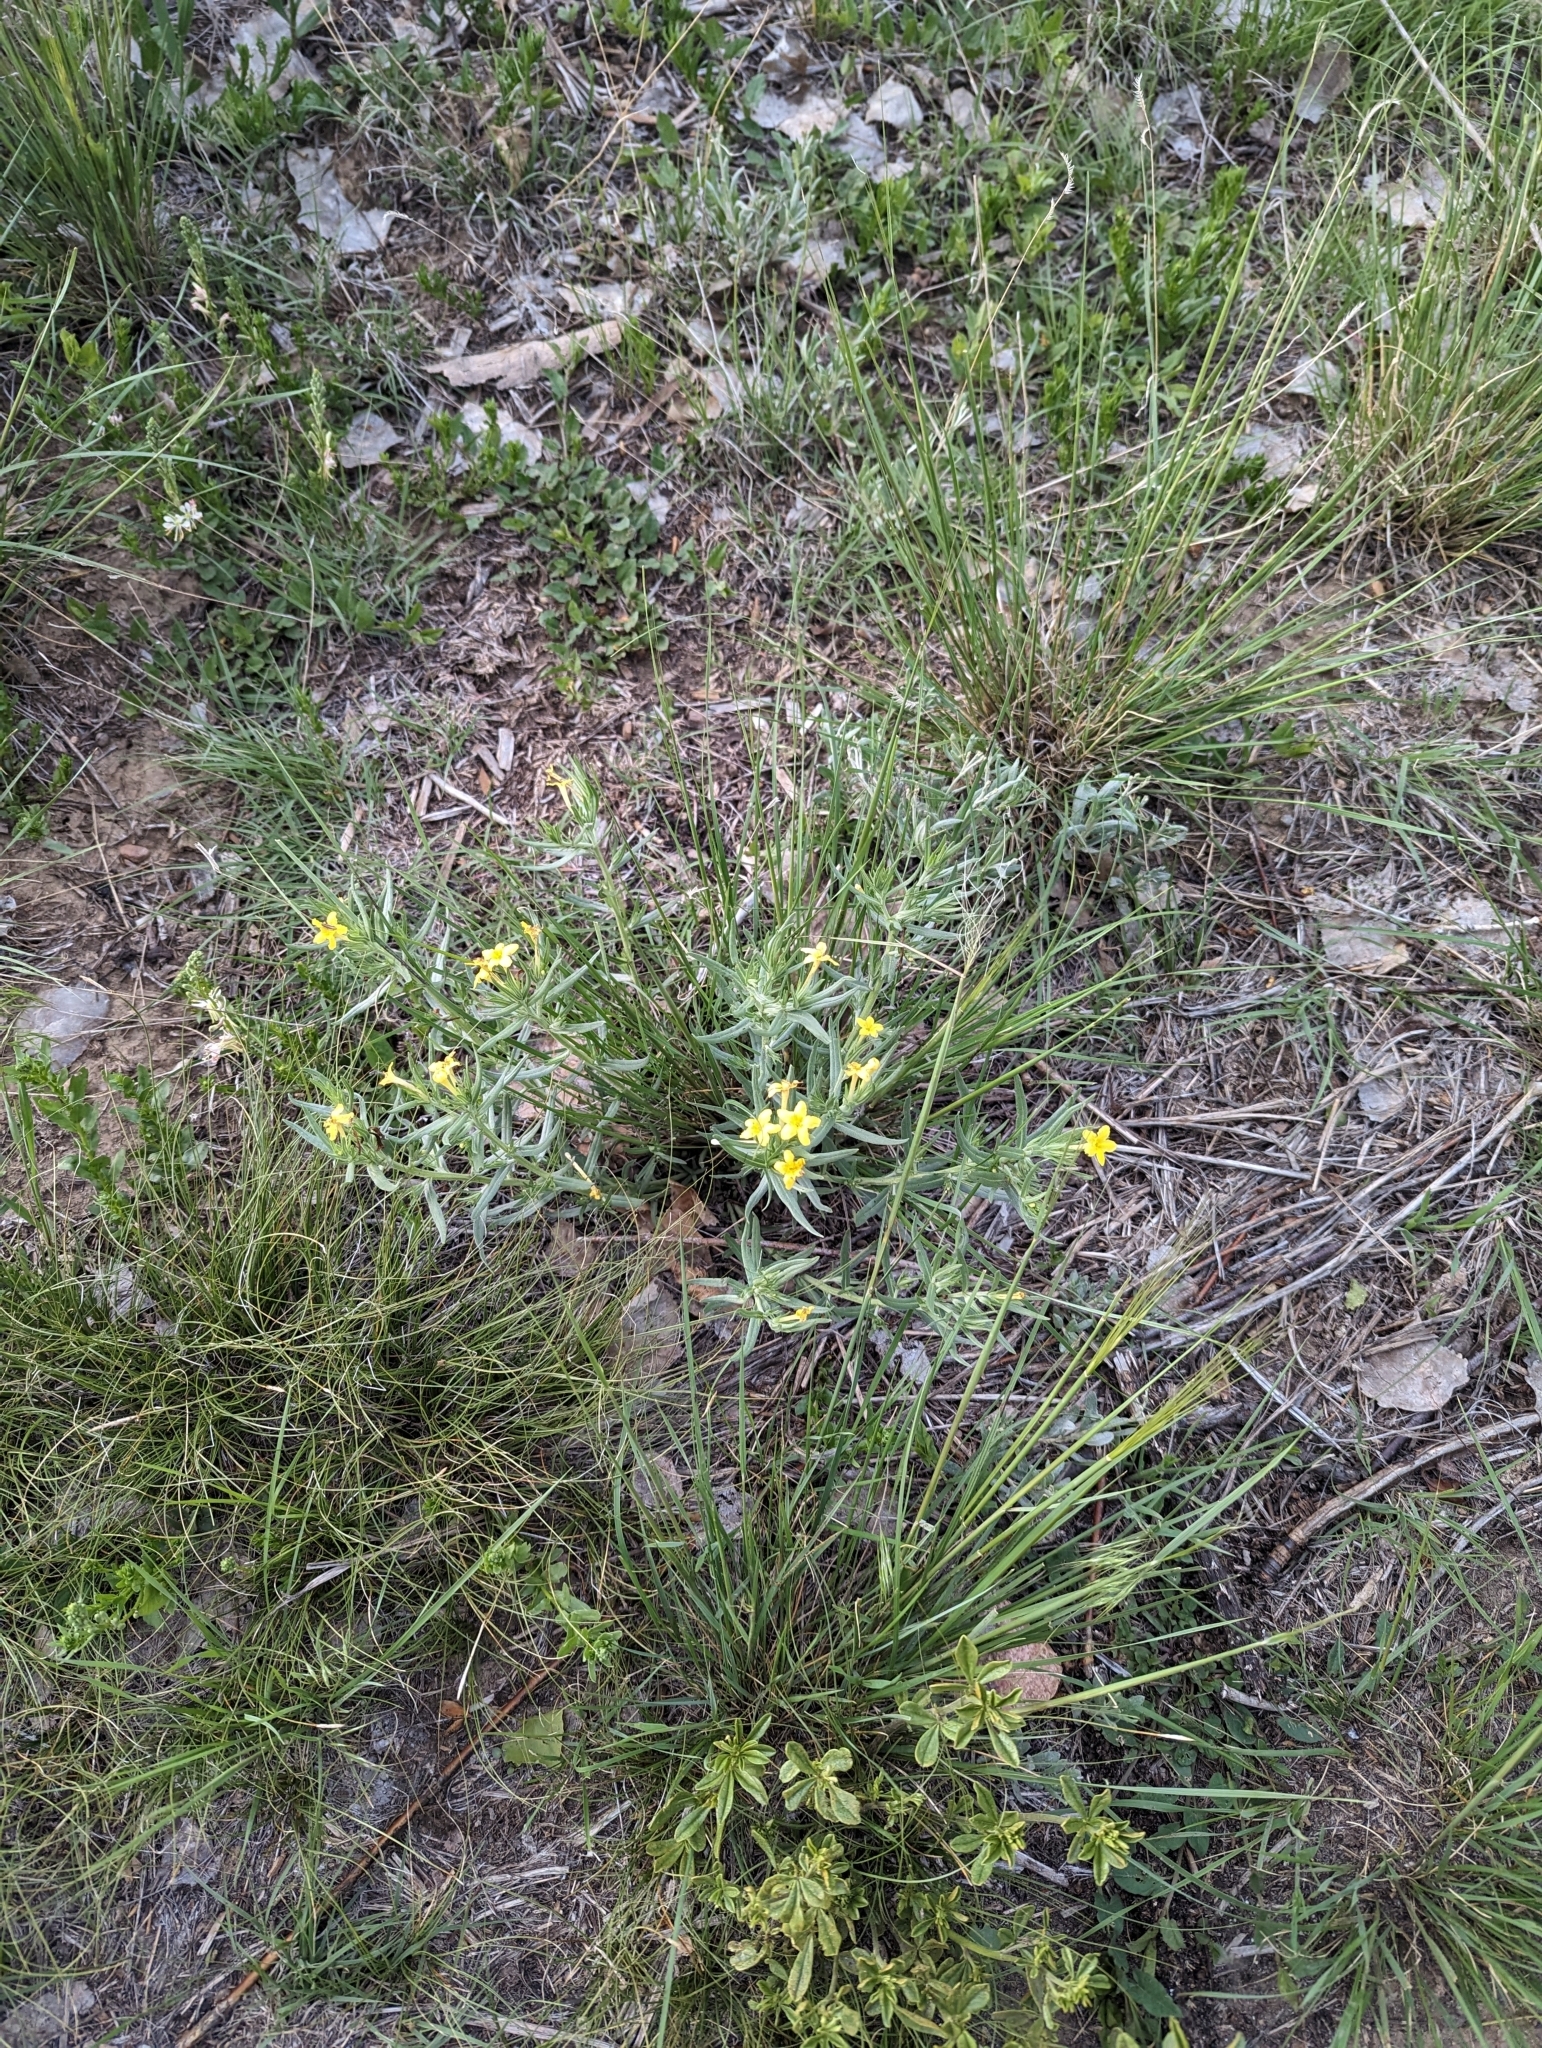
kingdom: Plantae
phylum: Tracheophyta
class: Magnoliopsida
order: Boraginales
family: Boraginaceae
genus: Lithospermum
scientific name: Lithospermum incisum
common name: Fringed gromwell
